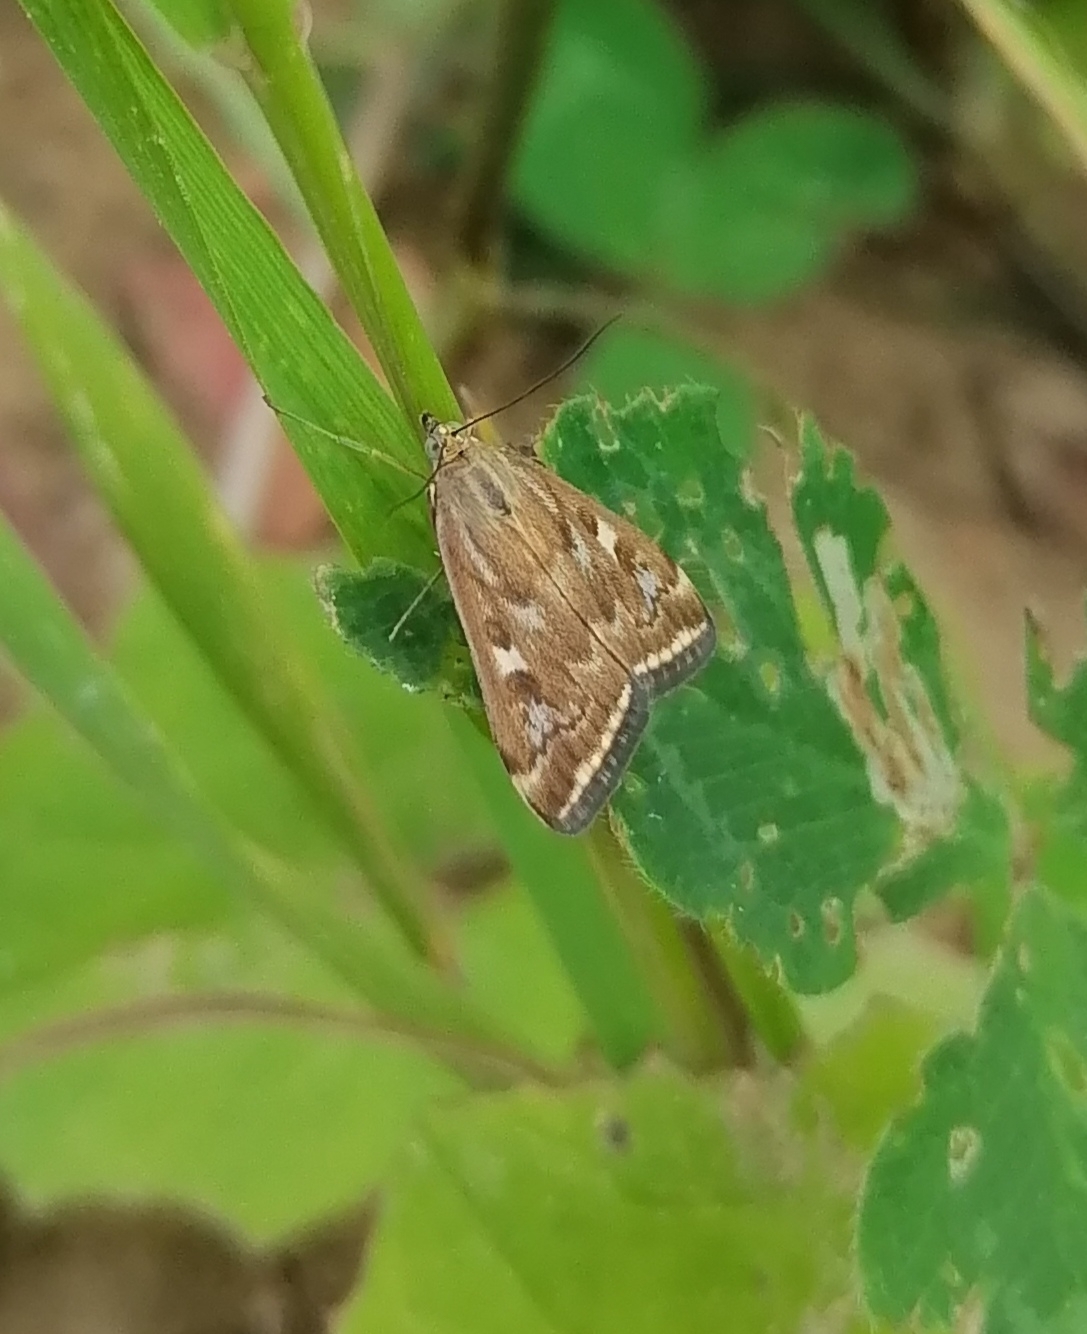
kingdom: Animalia
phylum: Arthropoda
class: Insecta
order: Lepidoptera
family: Crambidae
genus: Loxostege
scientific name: Loxostege sticticalis
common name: Crambid moth
